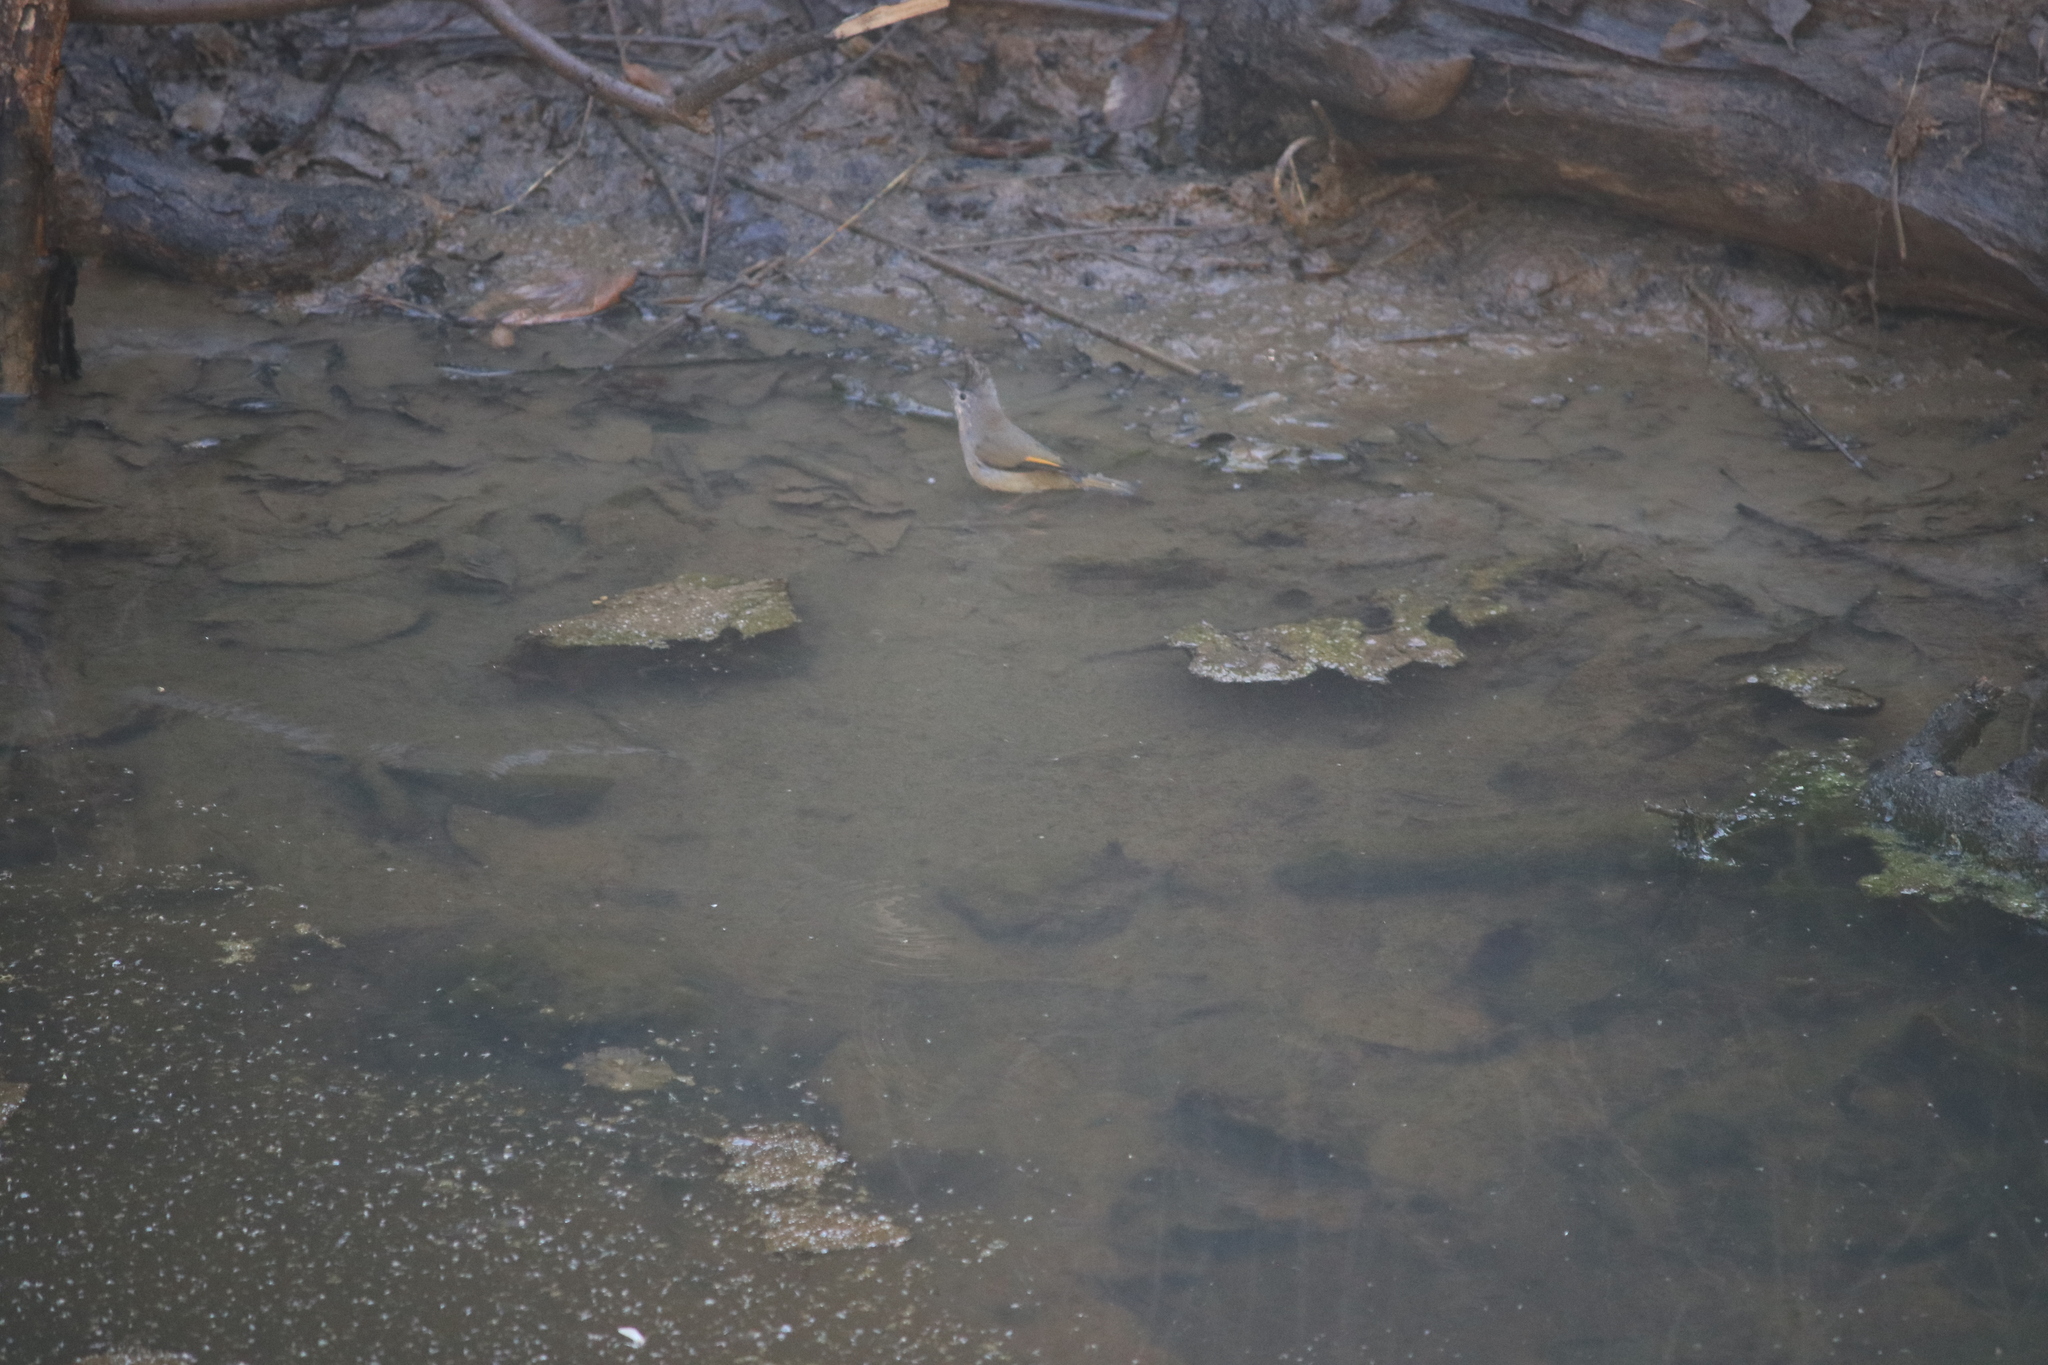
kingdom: Animalia
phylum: Chordata
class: Aves
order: Passeriformes
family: Zosteropidae
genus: Yuhina
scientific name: Yuhina gularis
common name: Stripe-throated yuhina
